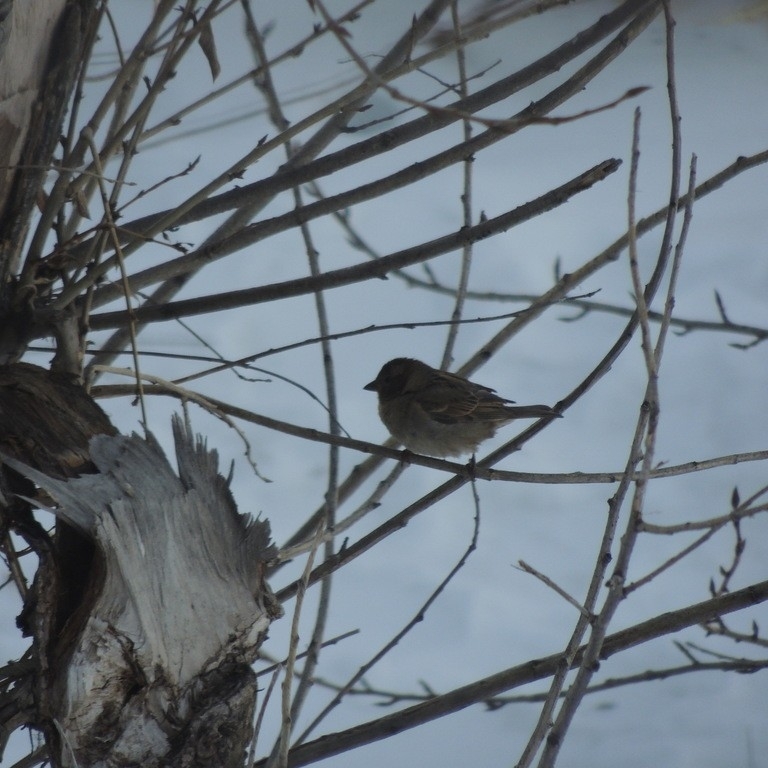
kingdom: Animalia
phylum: Chordata
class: Aves
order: Passeriformes
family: Passeridae
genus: Passer
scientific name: Passer domesticus
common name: House sparrow
